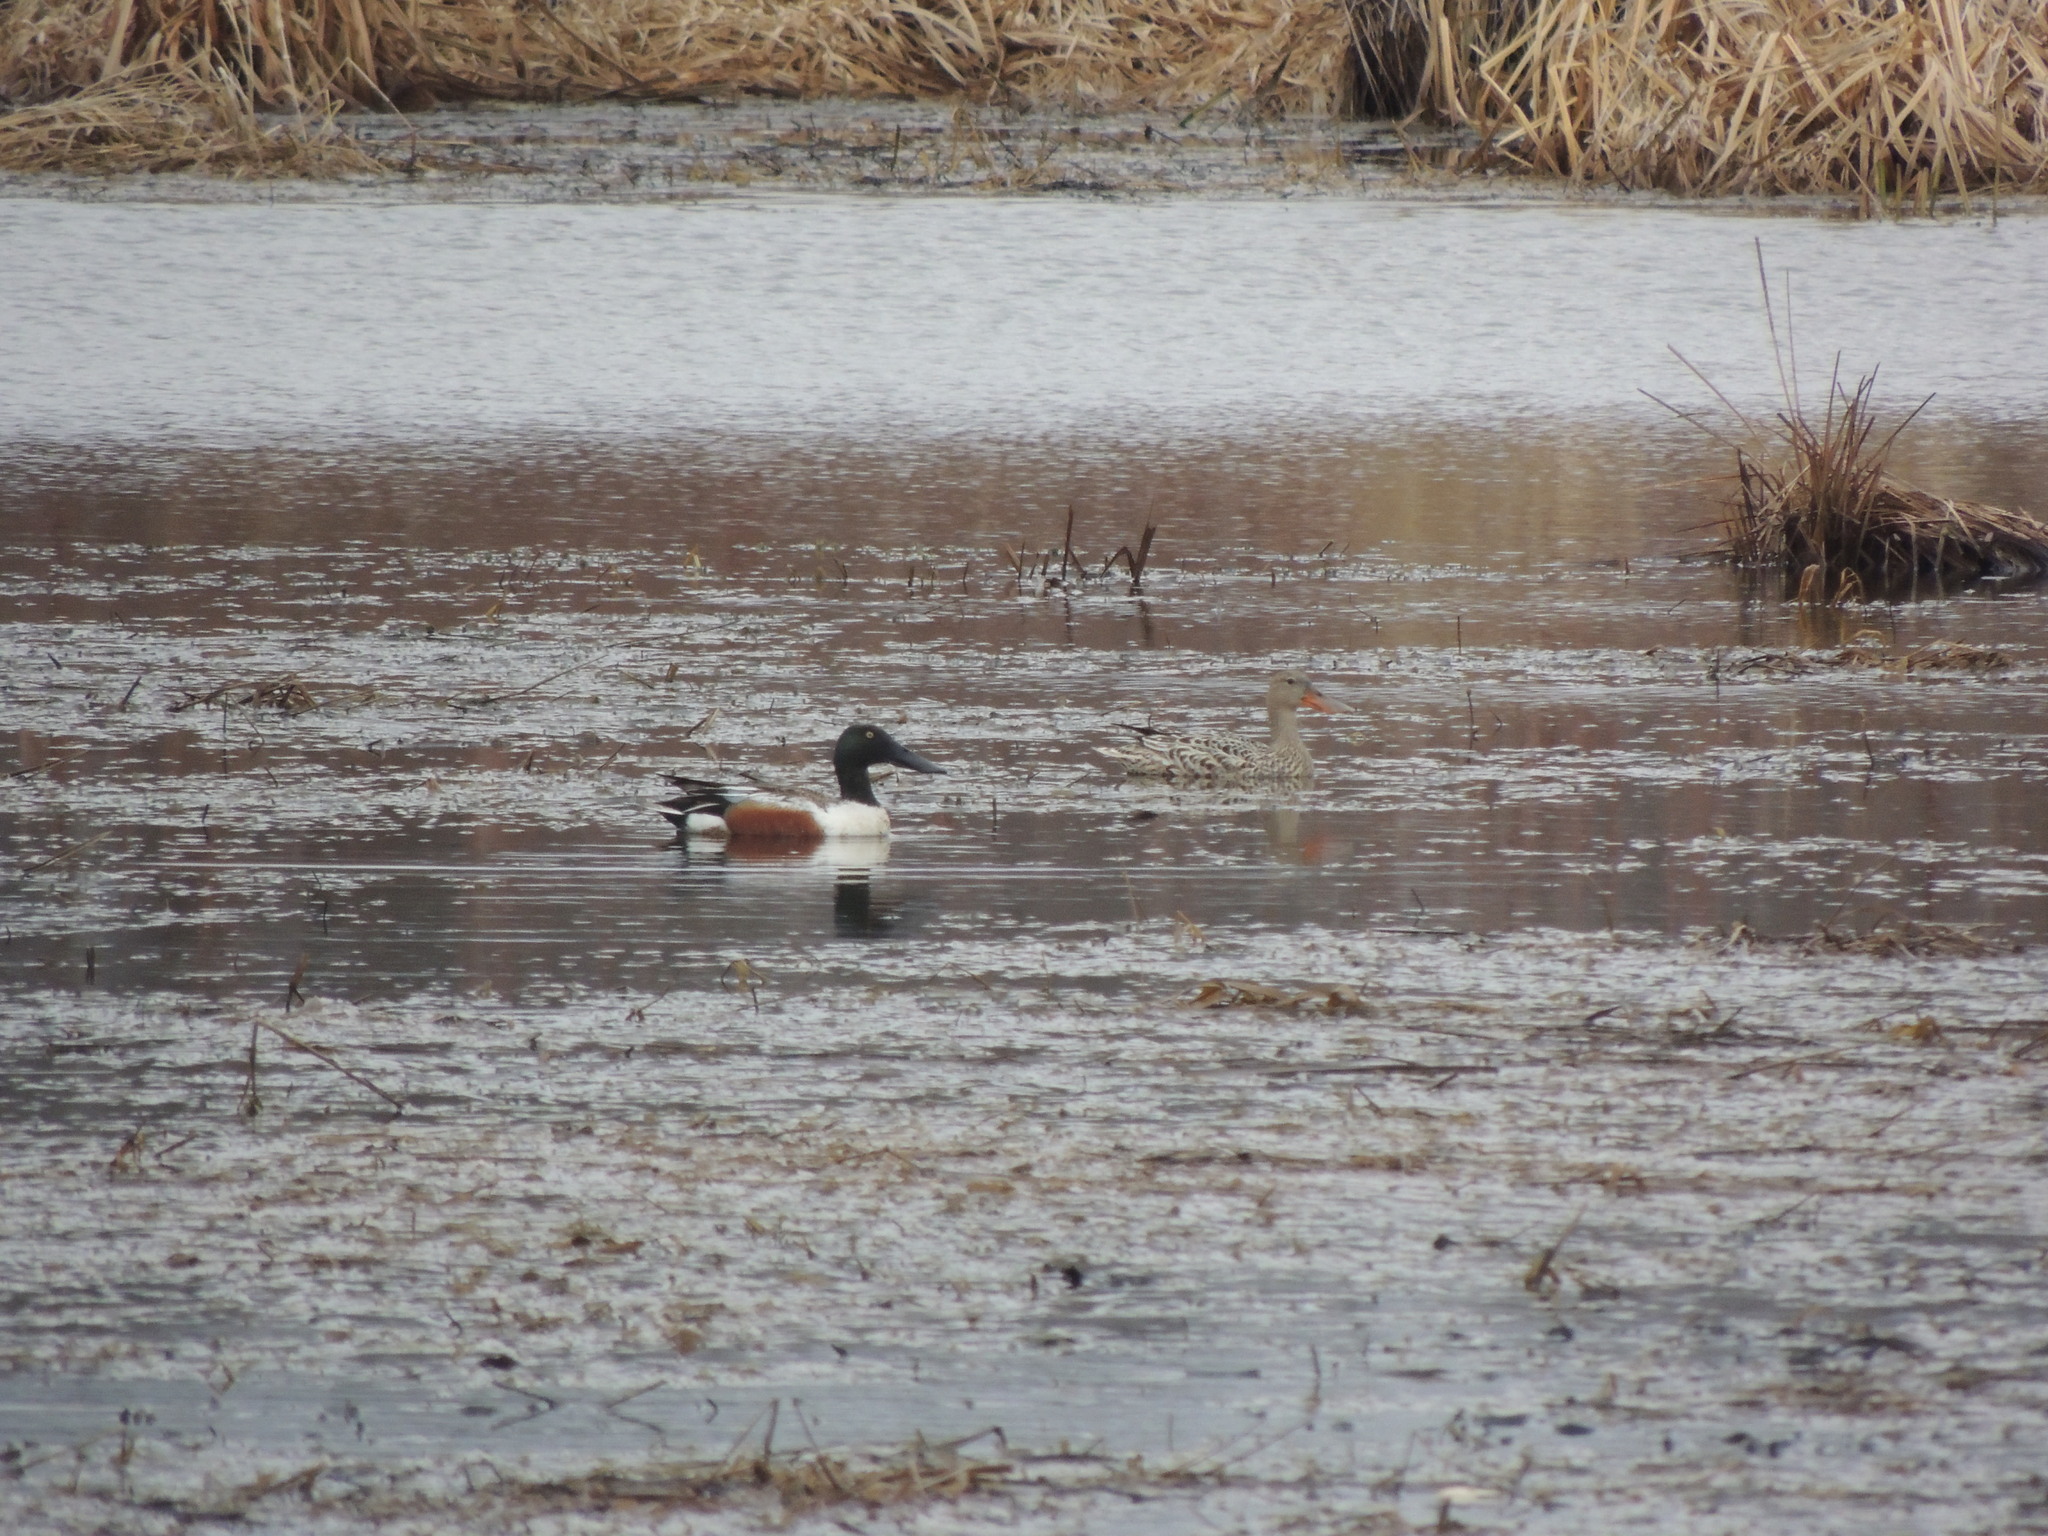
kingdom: Animalia
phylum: Chordata
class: Aves
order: Anseriformes
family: Anatidae
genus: Spatula
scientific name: Spatula clypeata
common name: Northern shoveler
